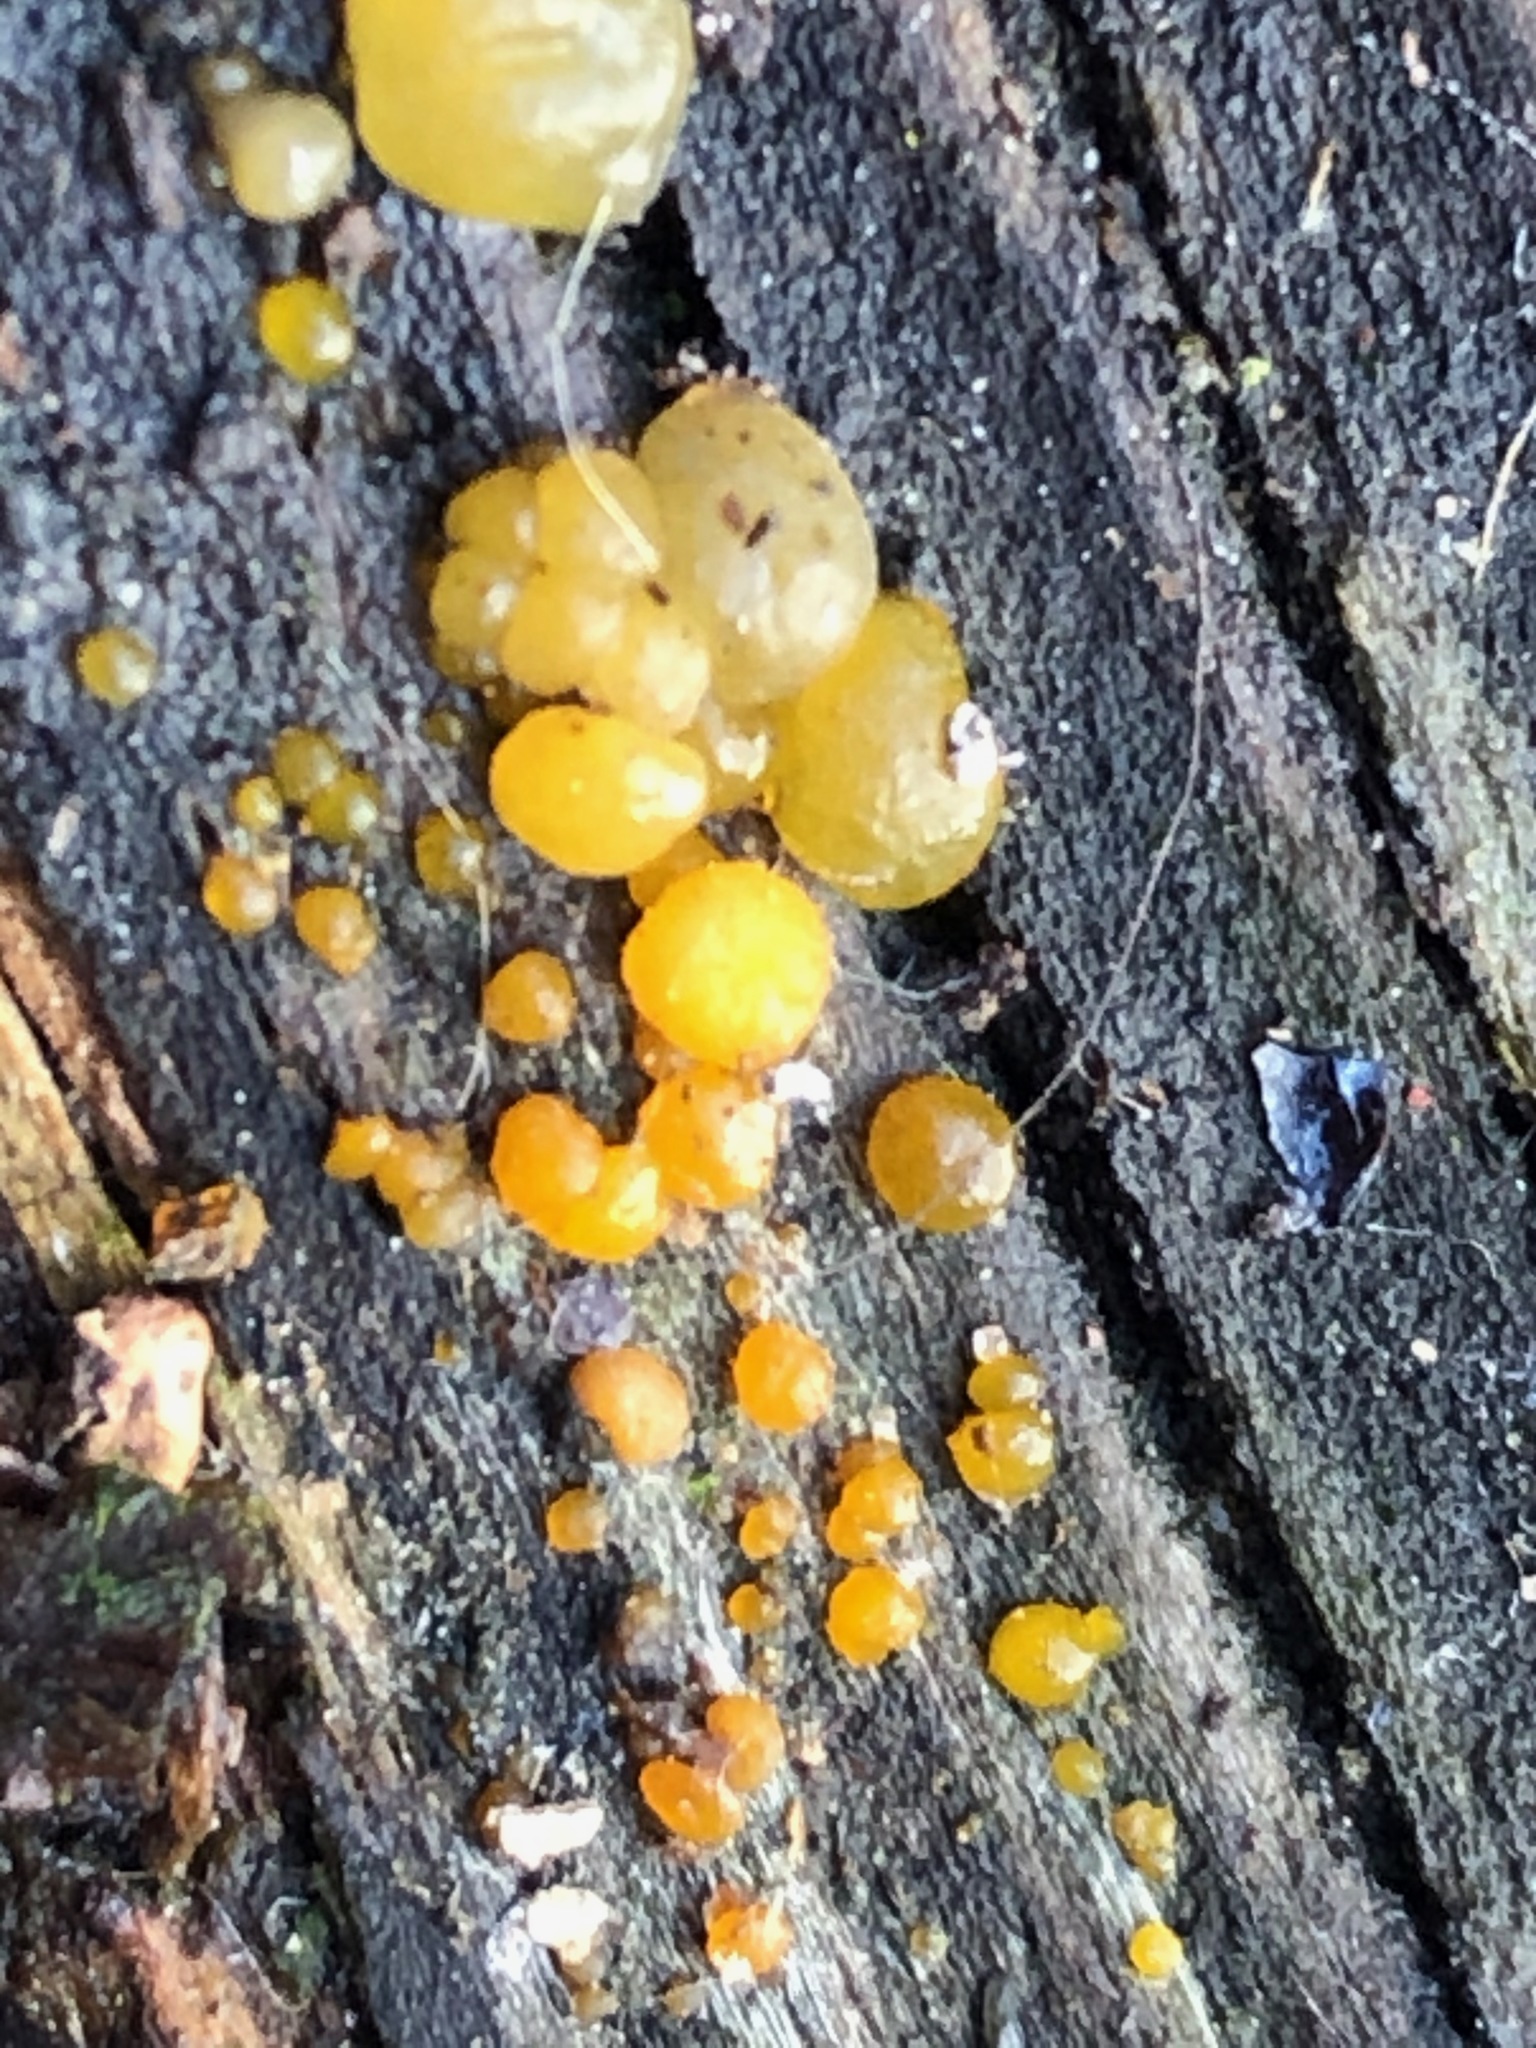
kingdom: Fungi
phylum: Basidiomycota
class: Dacrymycetes
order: Dacrymycetales
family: Dacrymycetaceae
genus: Dacrymyces
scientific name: Dacrymyces stillatus
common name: Common jelly spot
